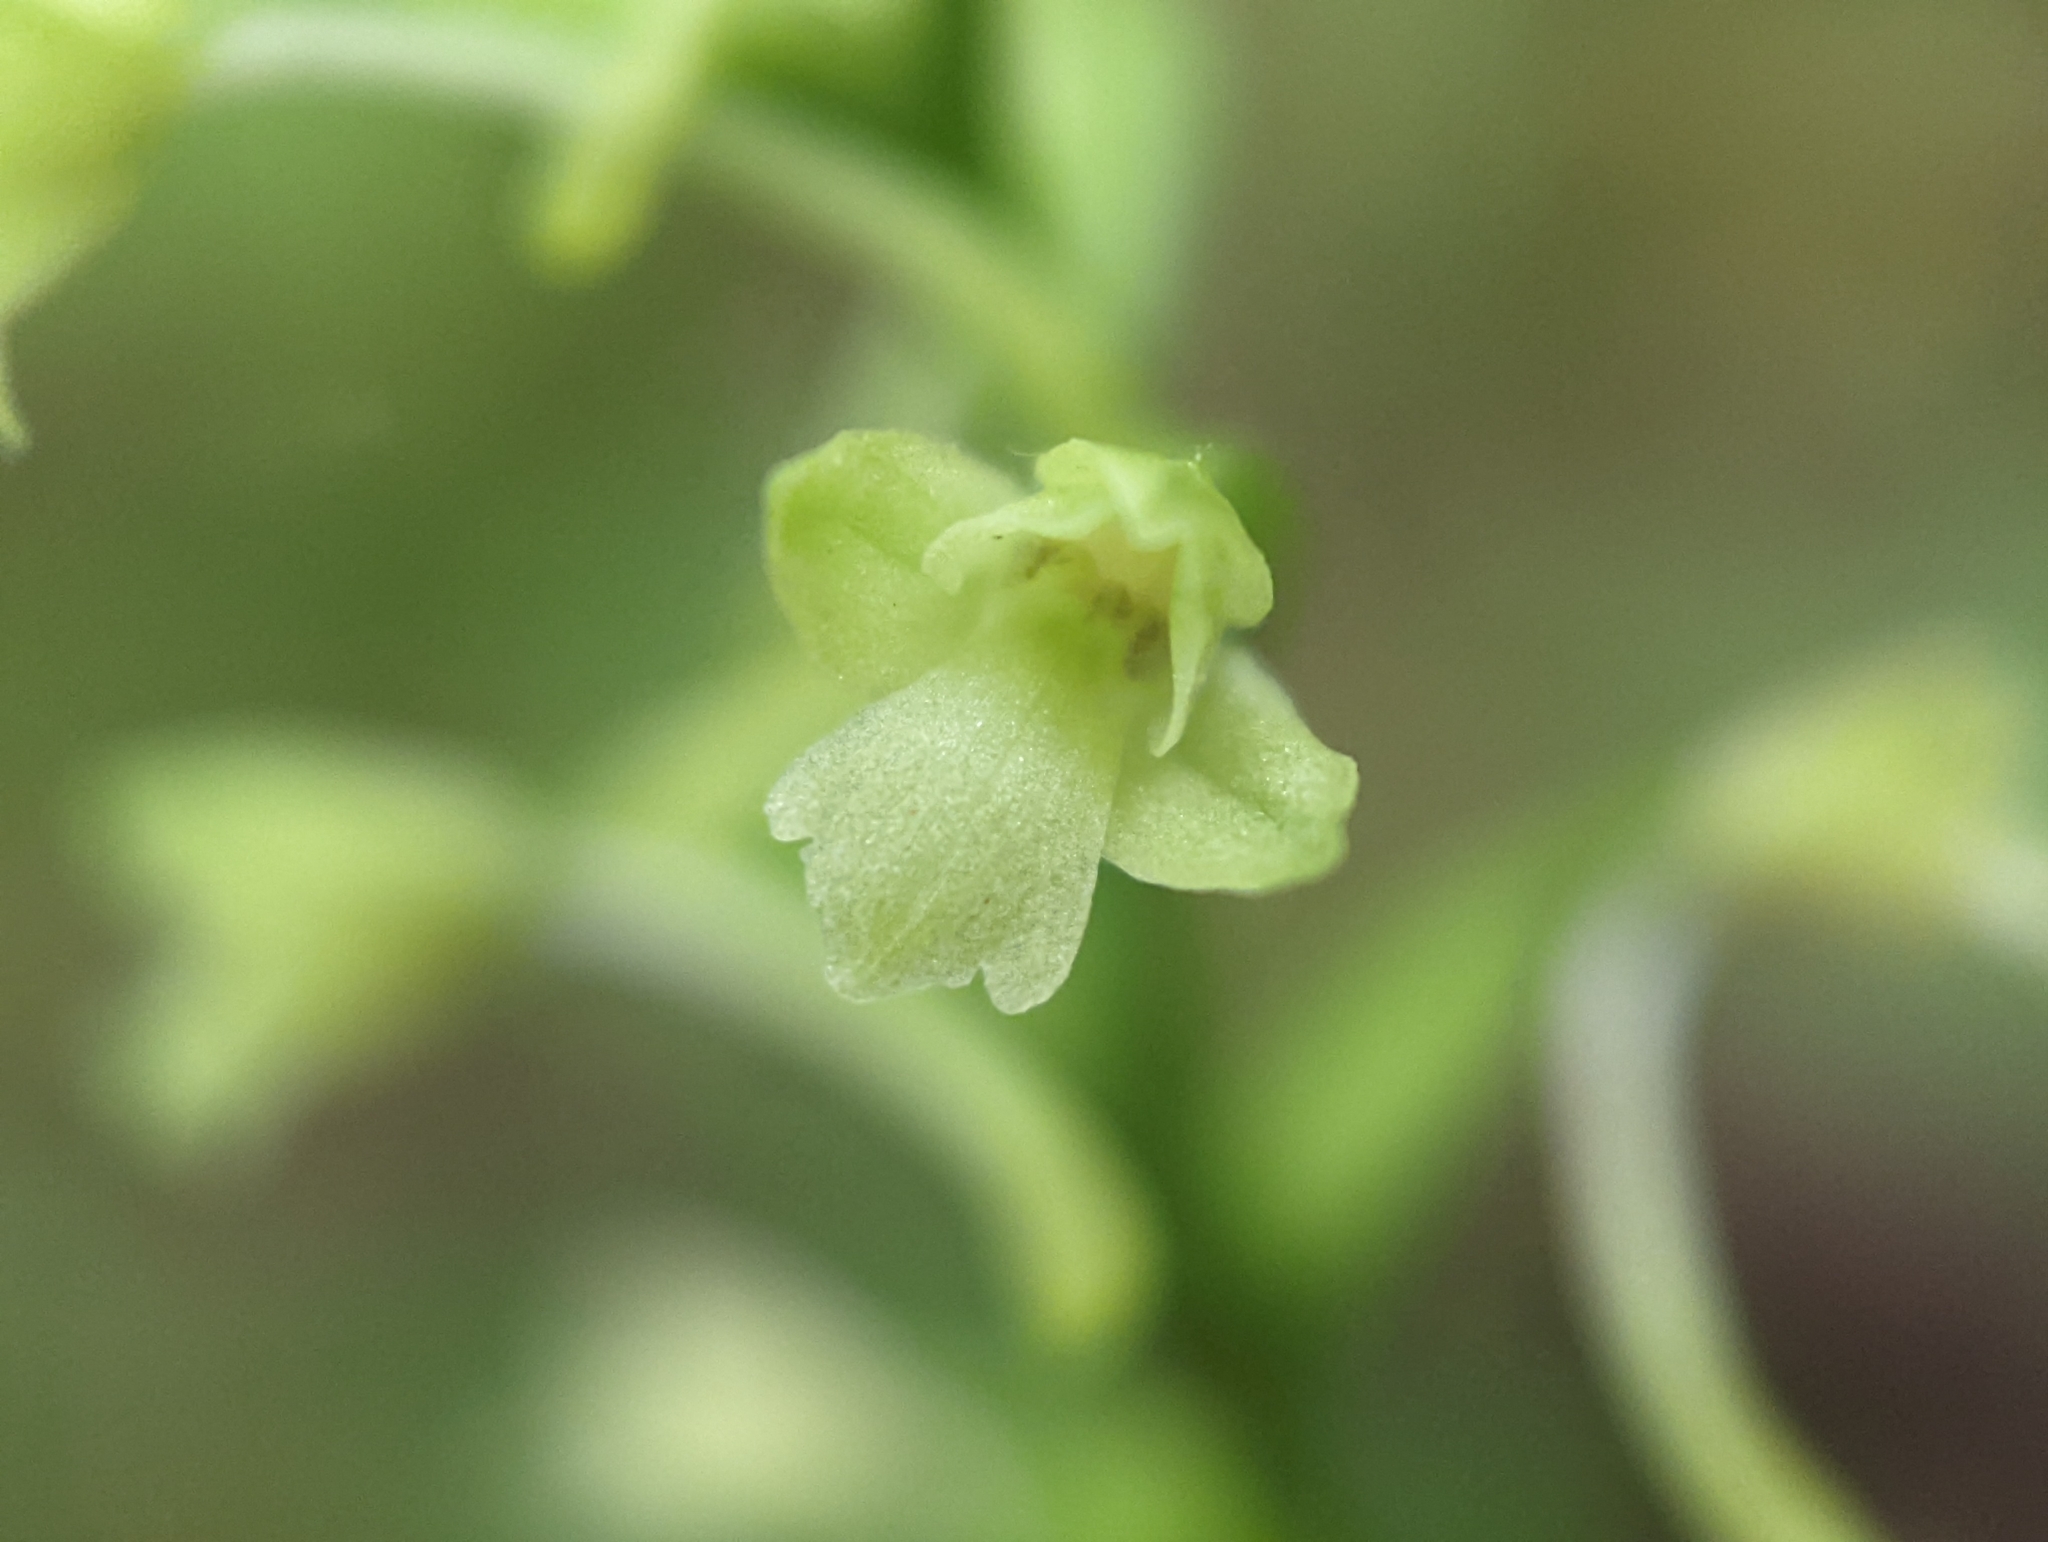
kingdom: Plantae
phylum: Tracheophyta
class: Liliopsida
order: Asparagales
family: Orchidaceae
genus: Platanthera
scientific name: Platanthera clavellata
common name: Club-spur orchid
